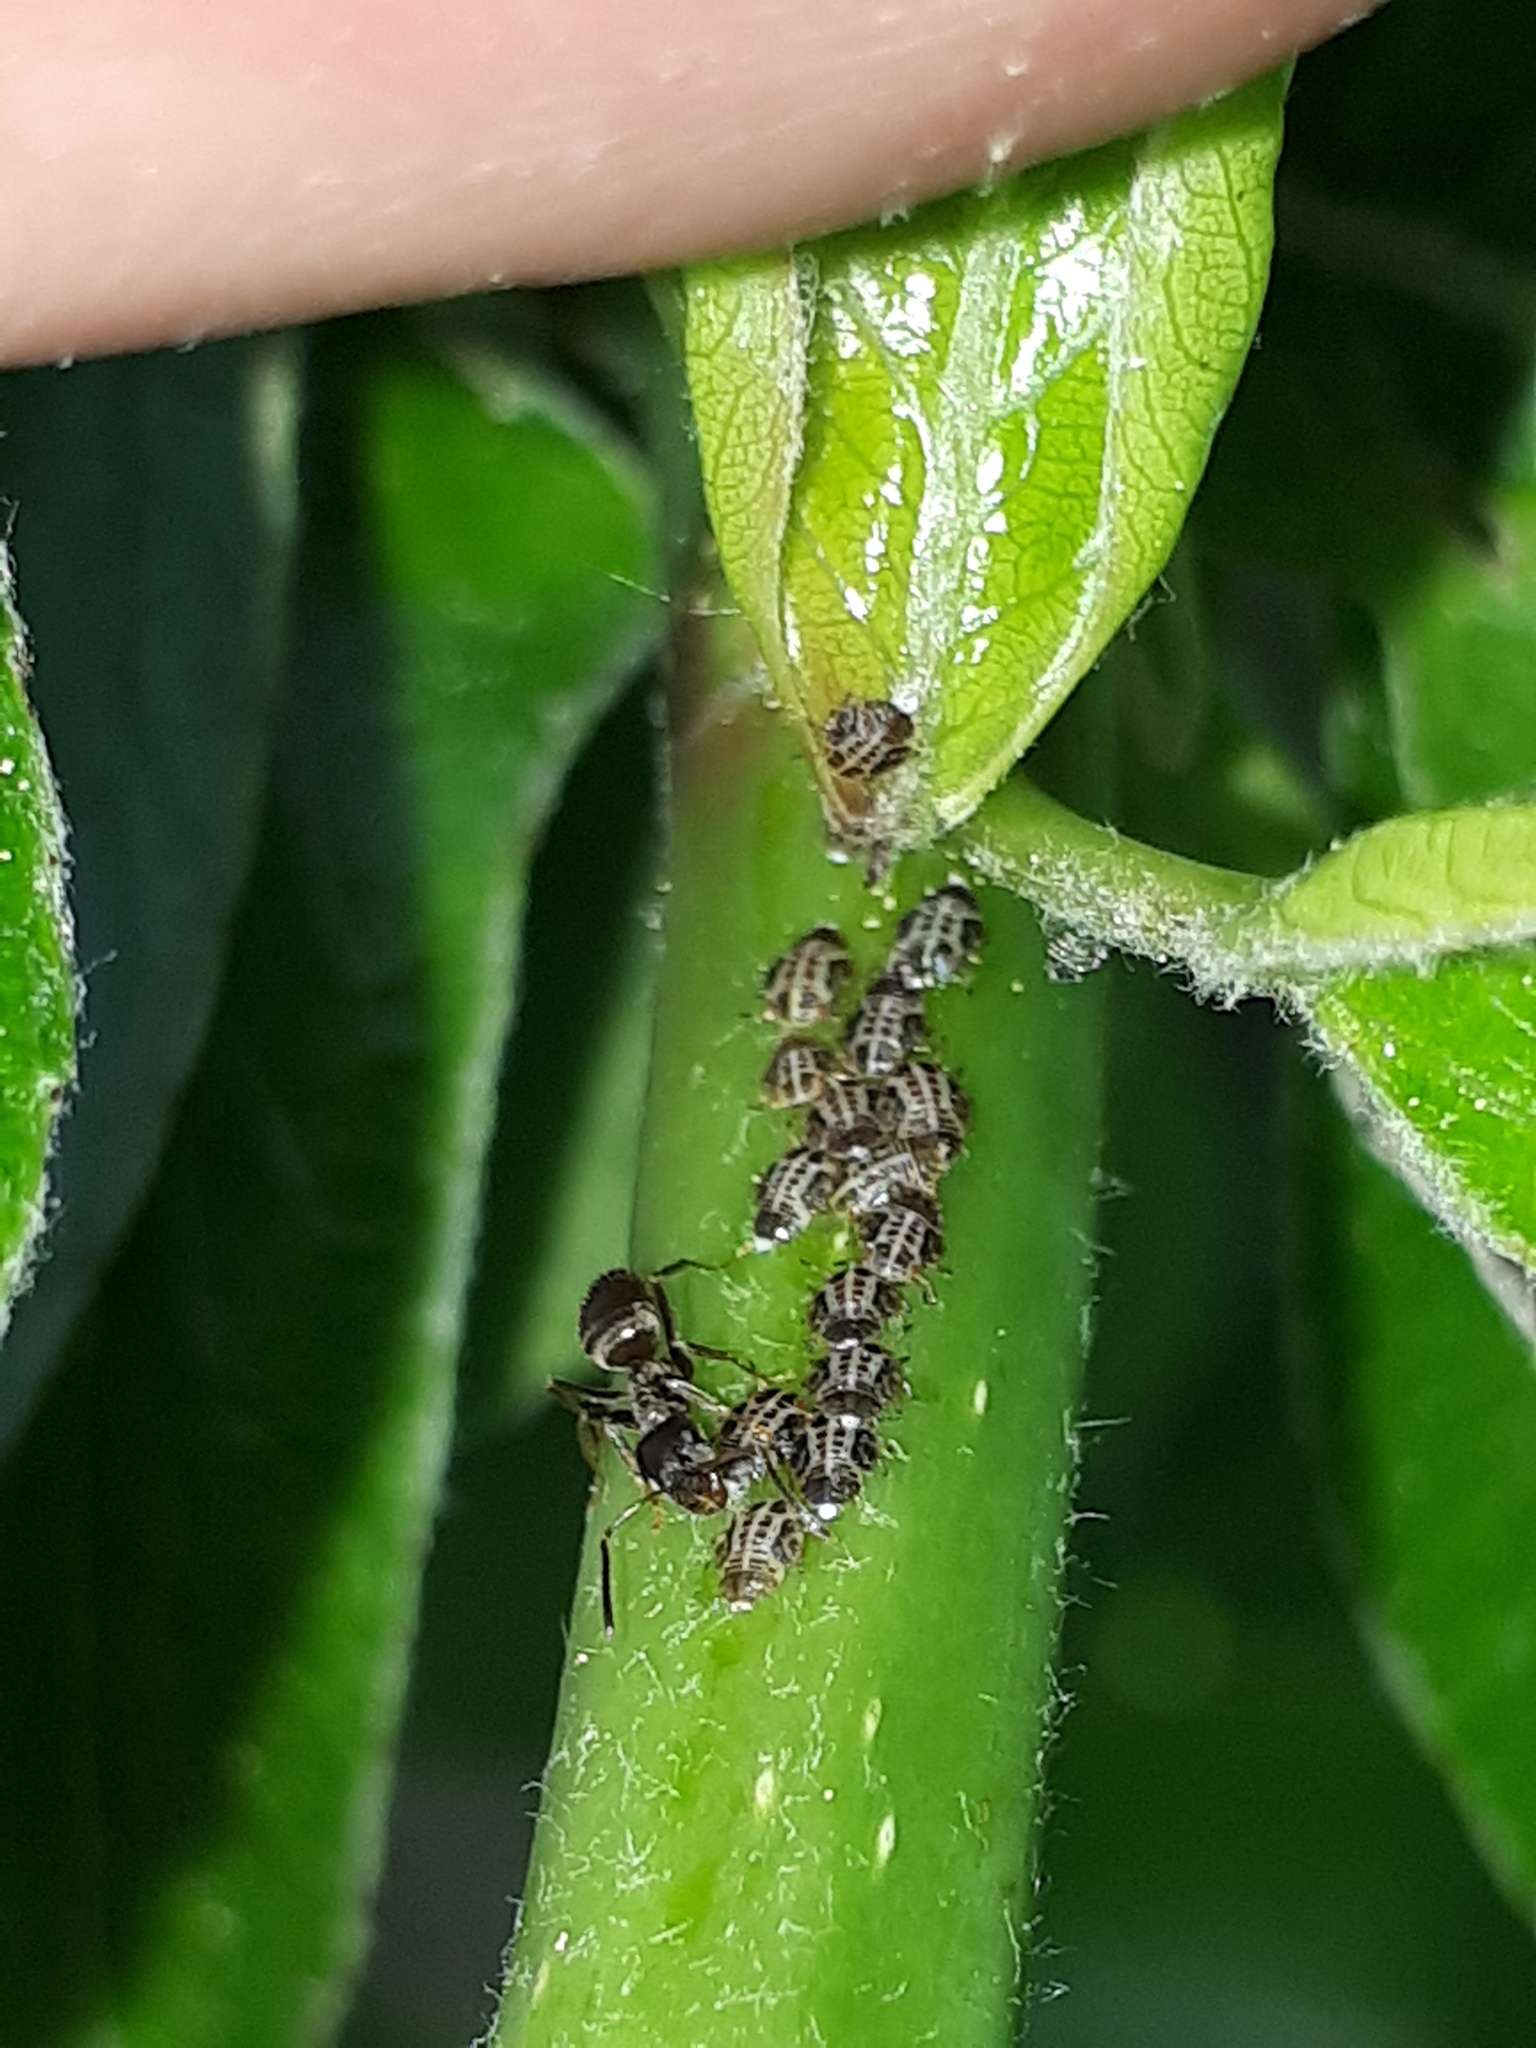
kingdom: Animalia
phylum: Arthropoda
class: Insecta
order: Hemiptera
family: Psyllidae
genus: Cacopsylla
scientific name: Cacopsylla pyrisuga
